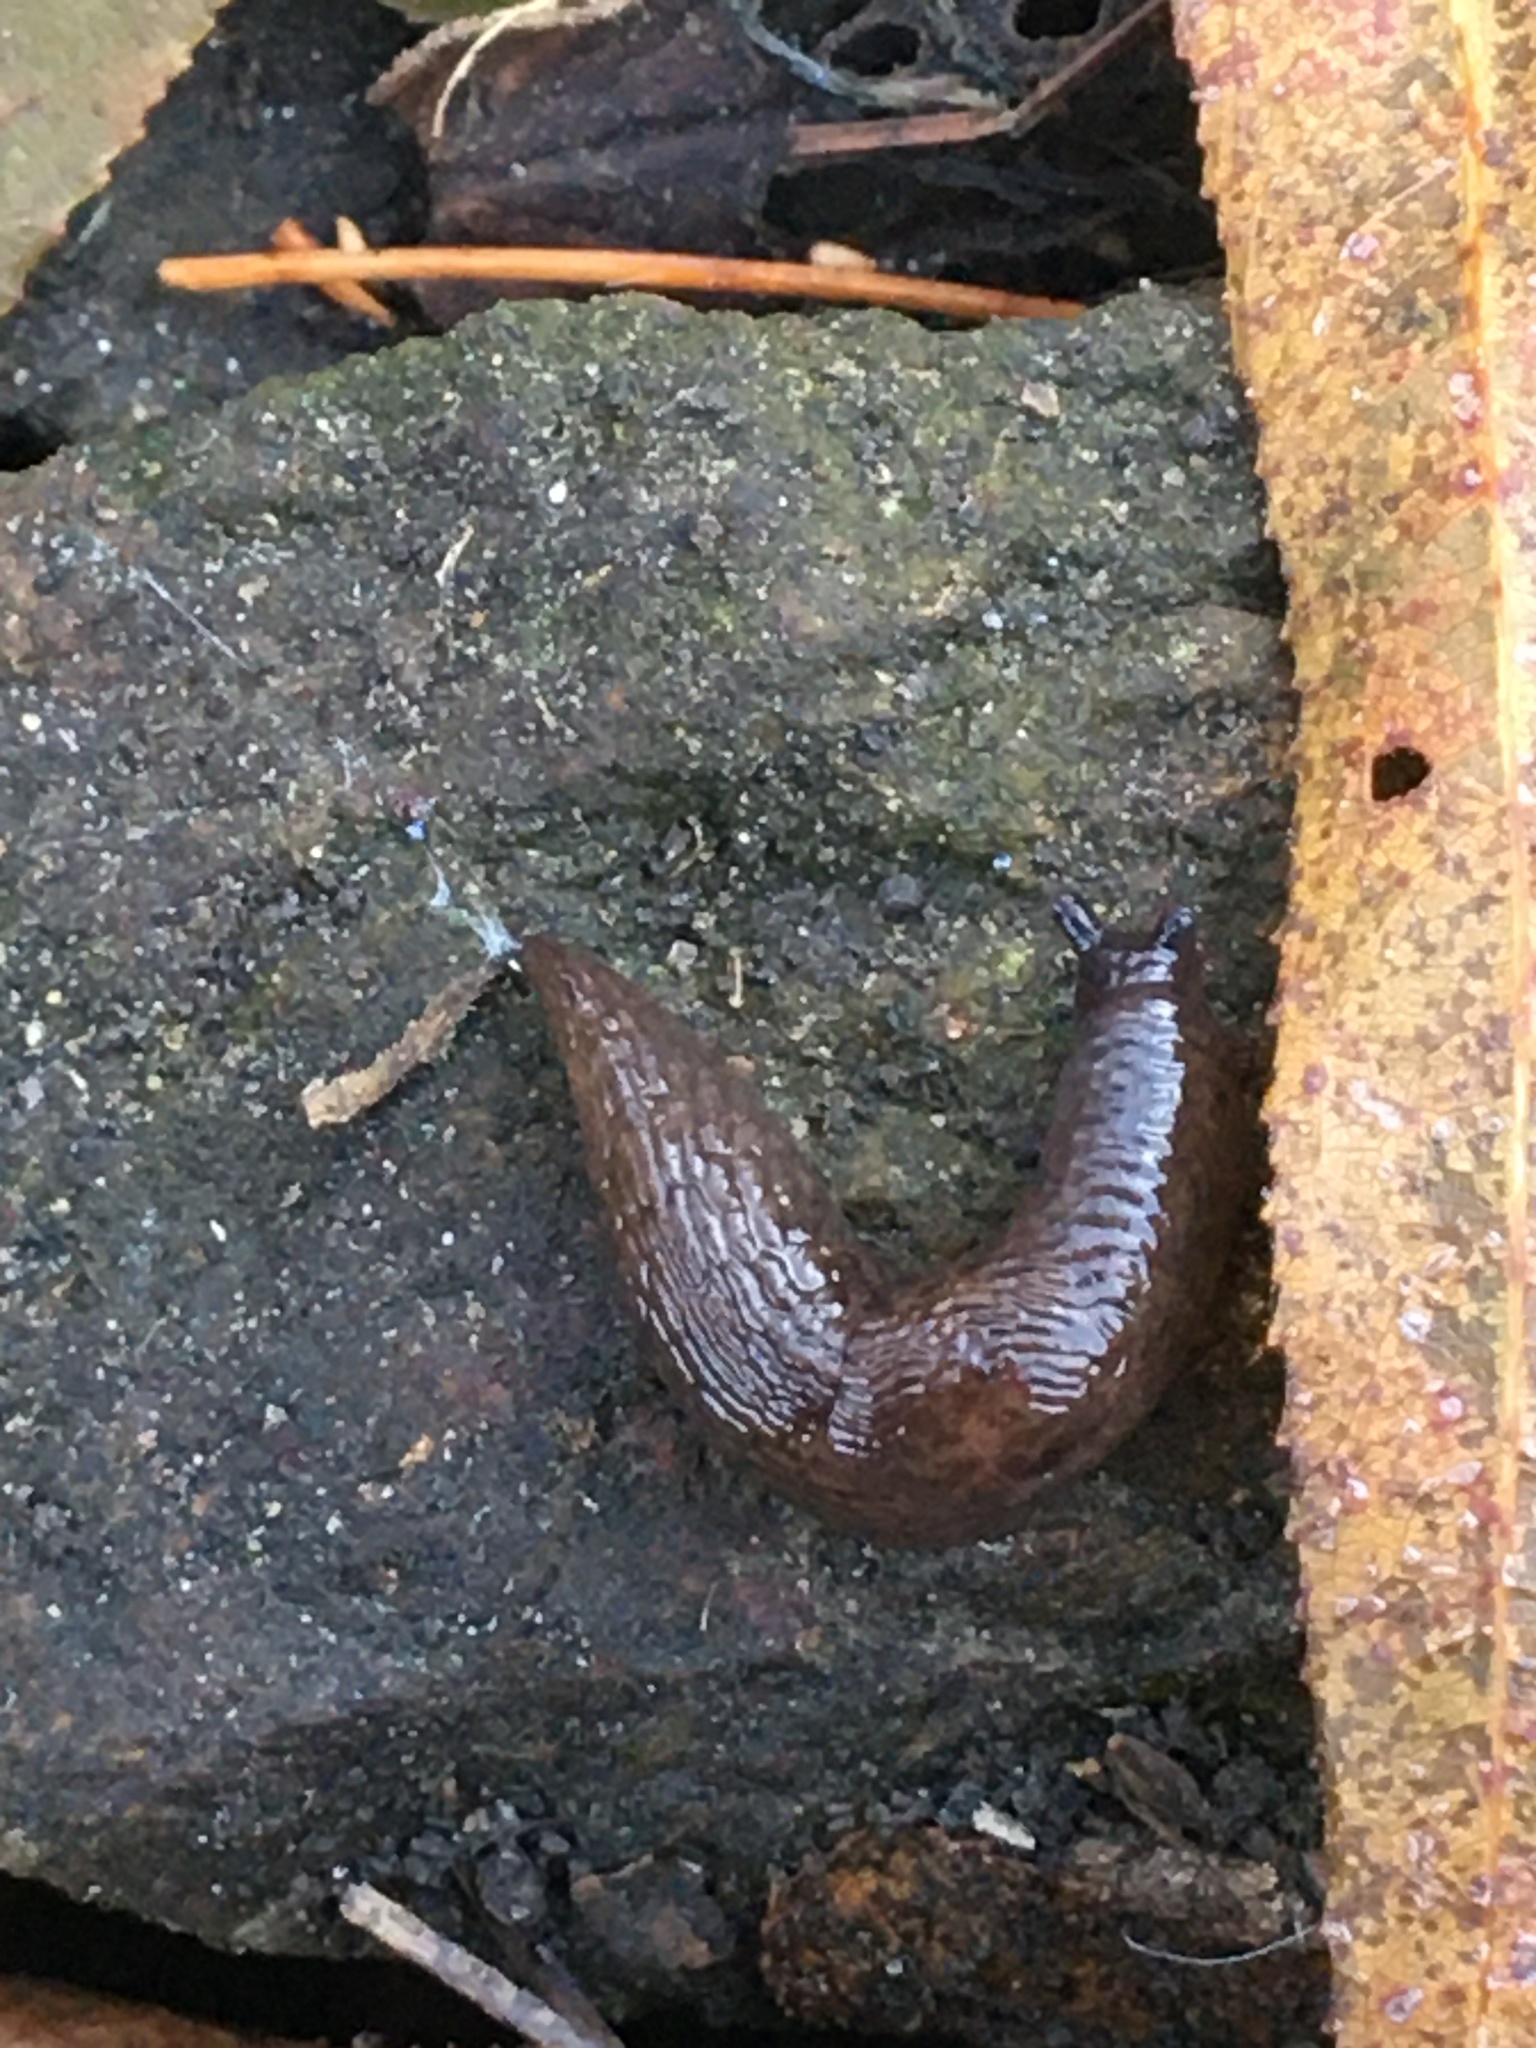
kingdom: Animalia
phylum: Mollusca
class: Gastropoda
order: Stylommatophora
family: Agriolimacidae
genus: Deroceras
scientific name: Deroceras laeve
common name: Marsh slug
